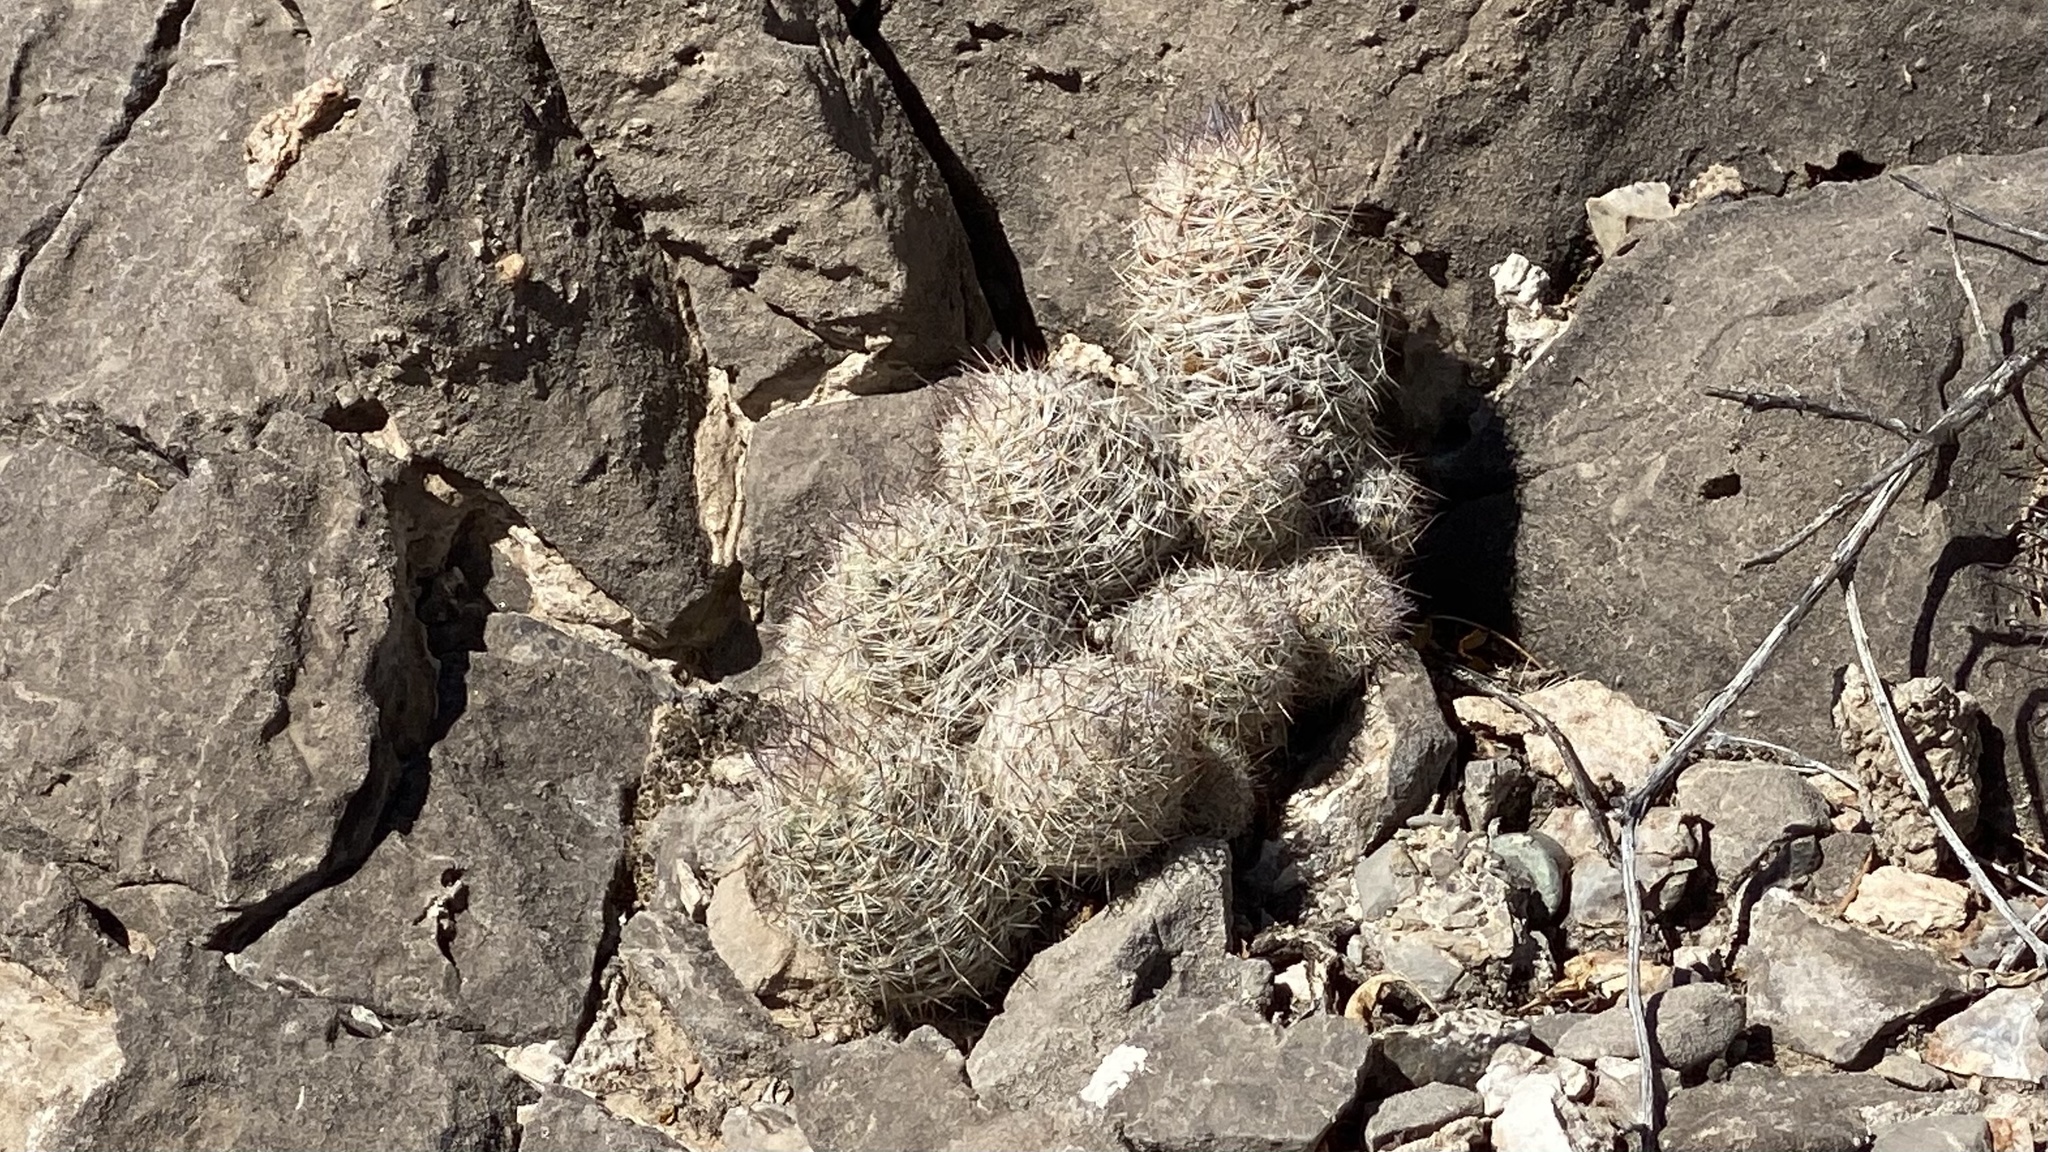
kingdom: Plantae
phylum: Tracheophyta
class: Magnoliopsida
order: Caryophyllales
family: Cactaceae
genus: Pelecyphora
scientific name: Pelecyphora tuberculosa
